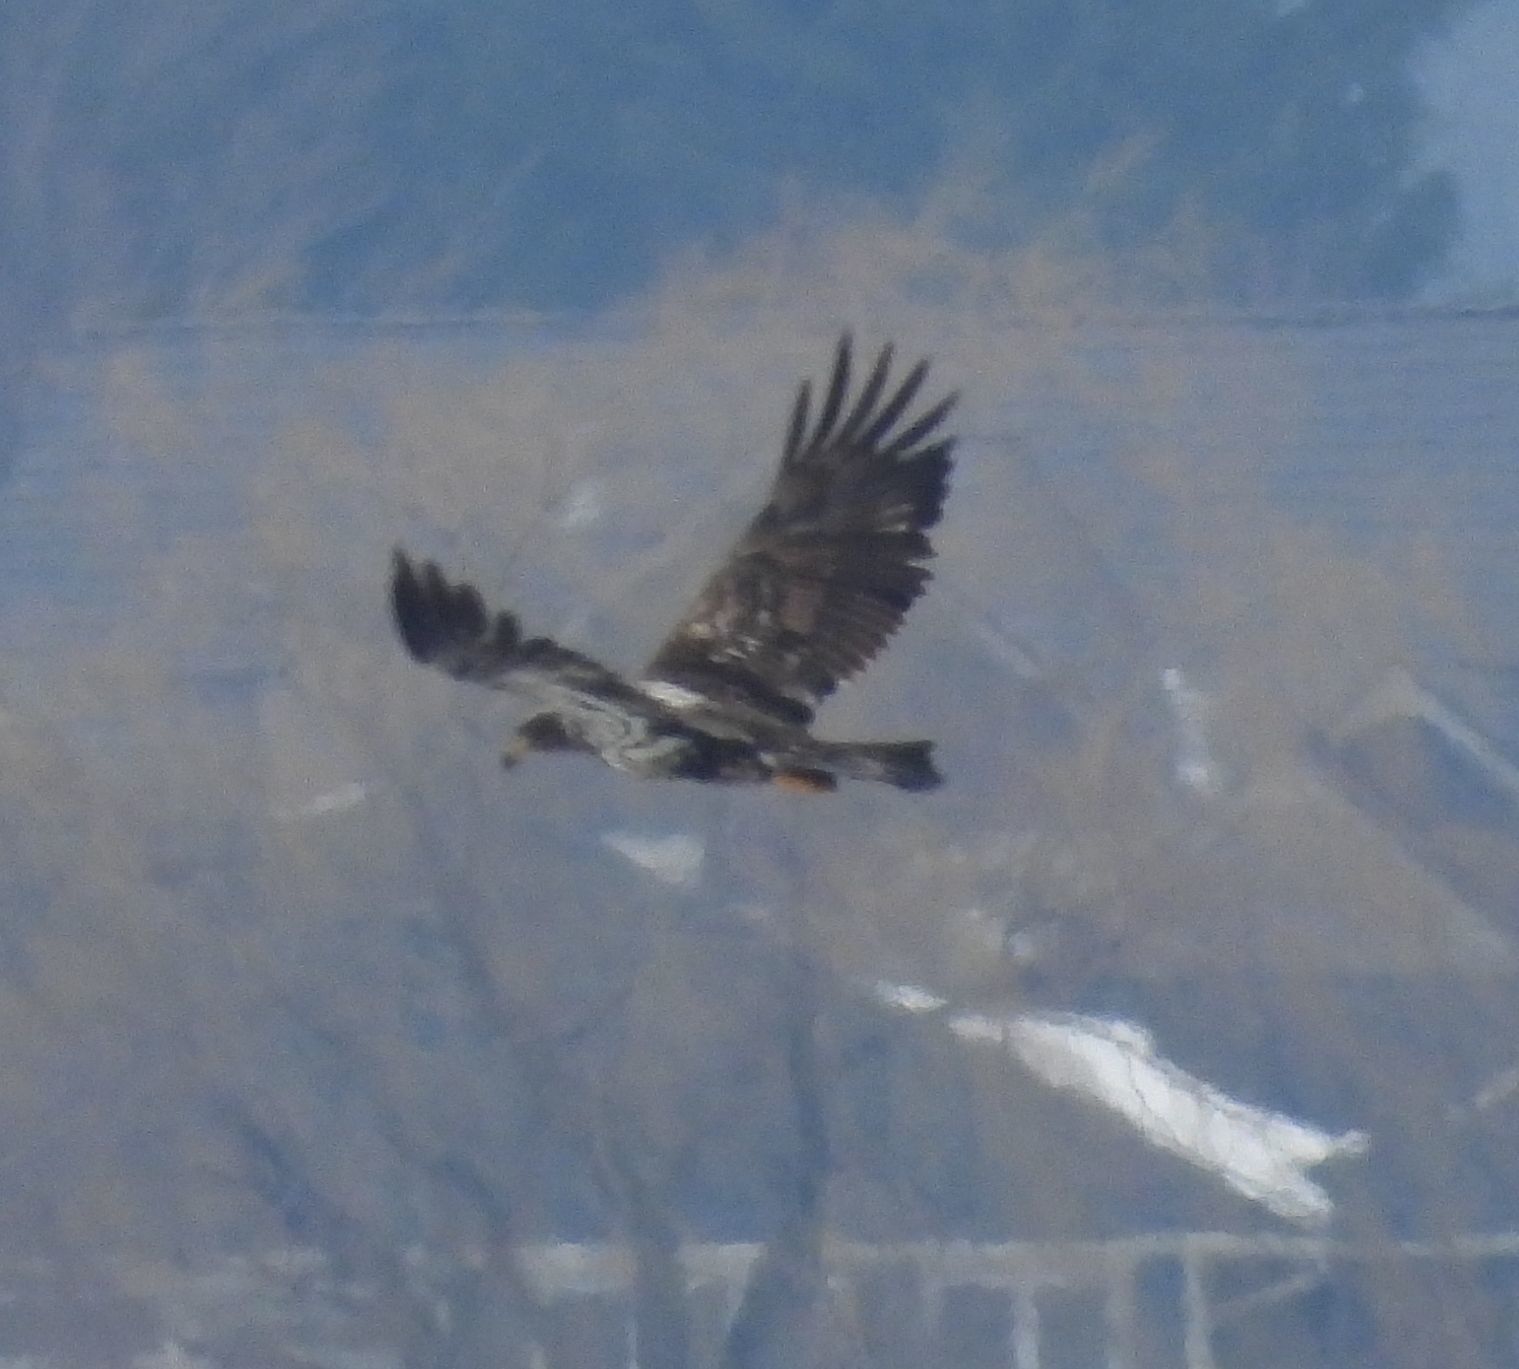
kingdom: Animalia
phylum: Chordata
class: Aves
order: Accipitriformes
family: Accipitridae
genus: Haliaeetus
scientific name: Haliaeetus leucocephalus
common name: Bald eagle
